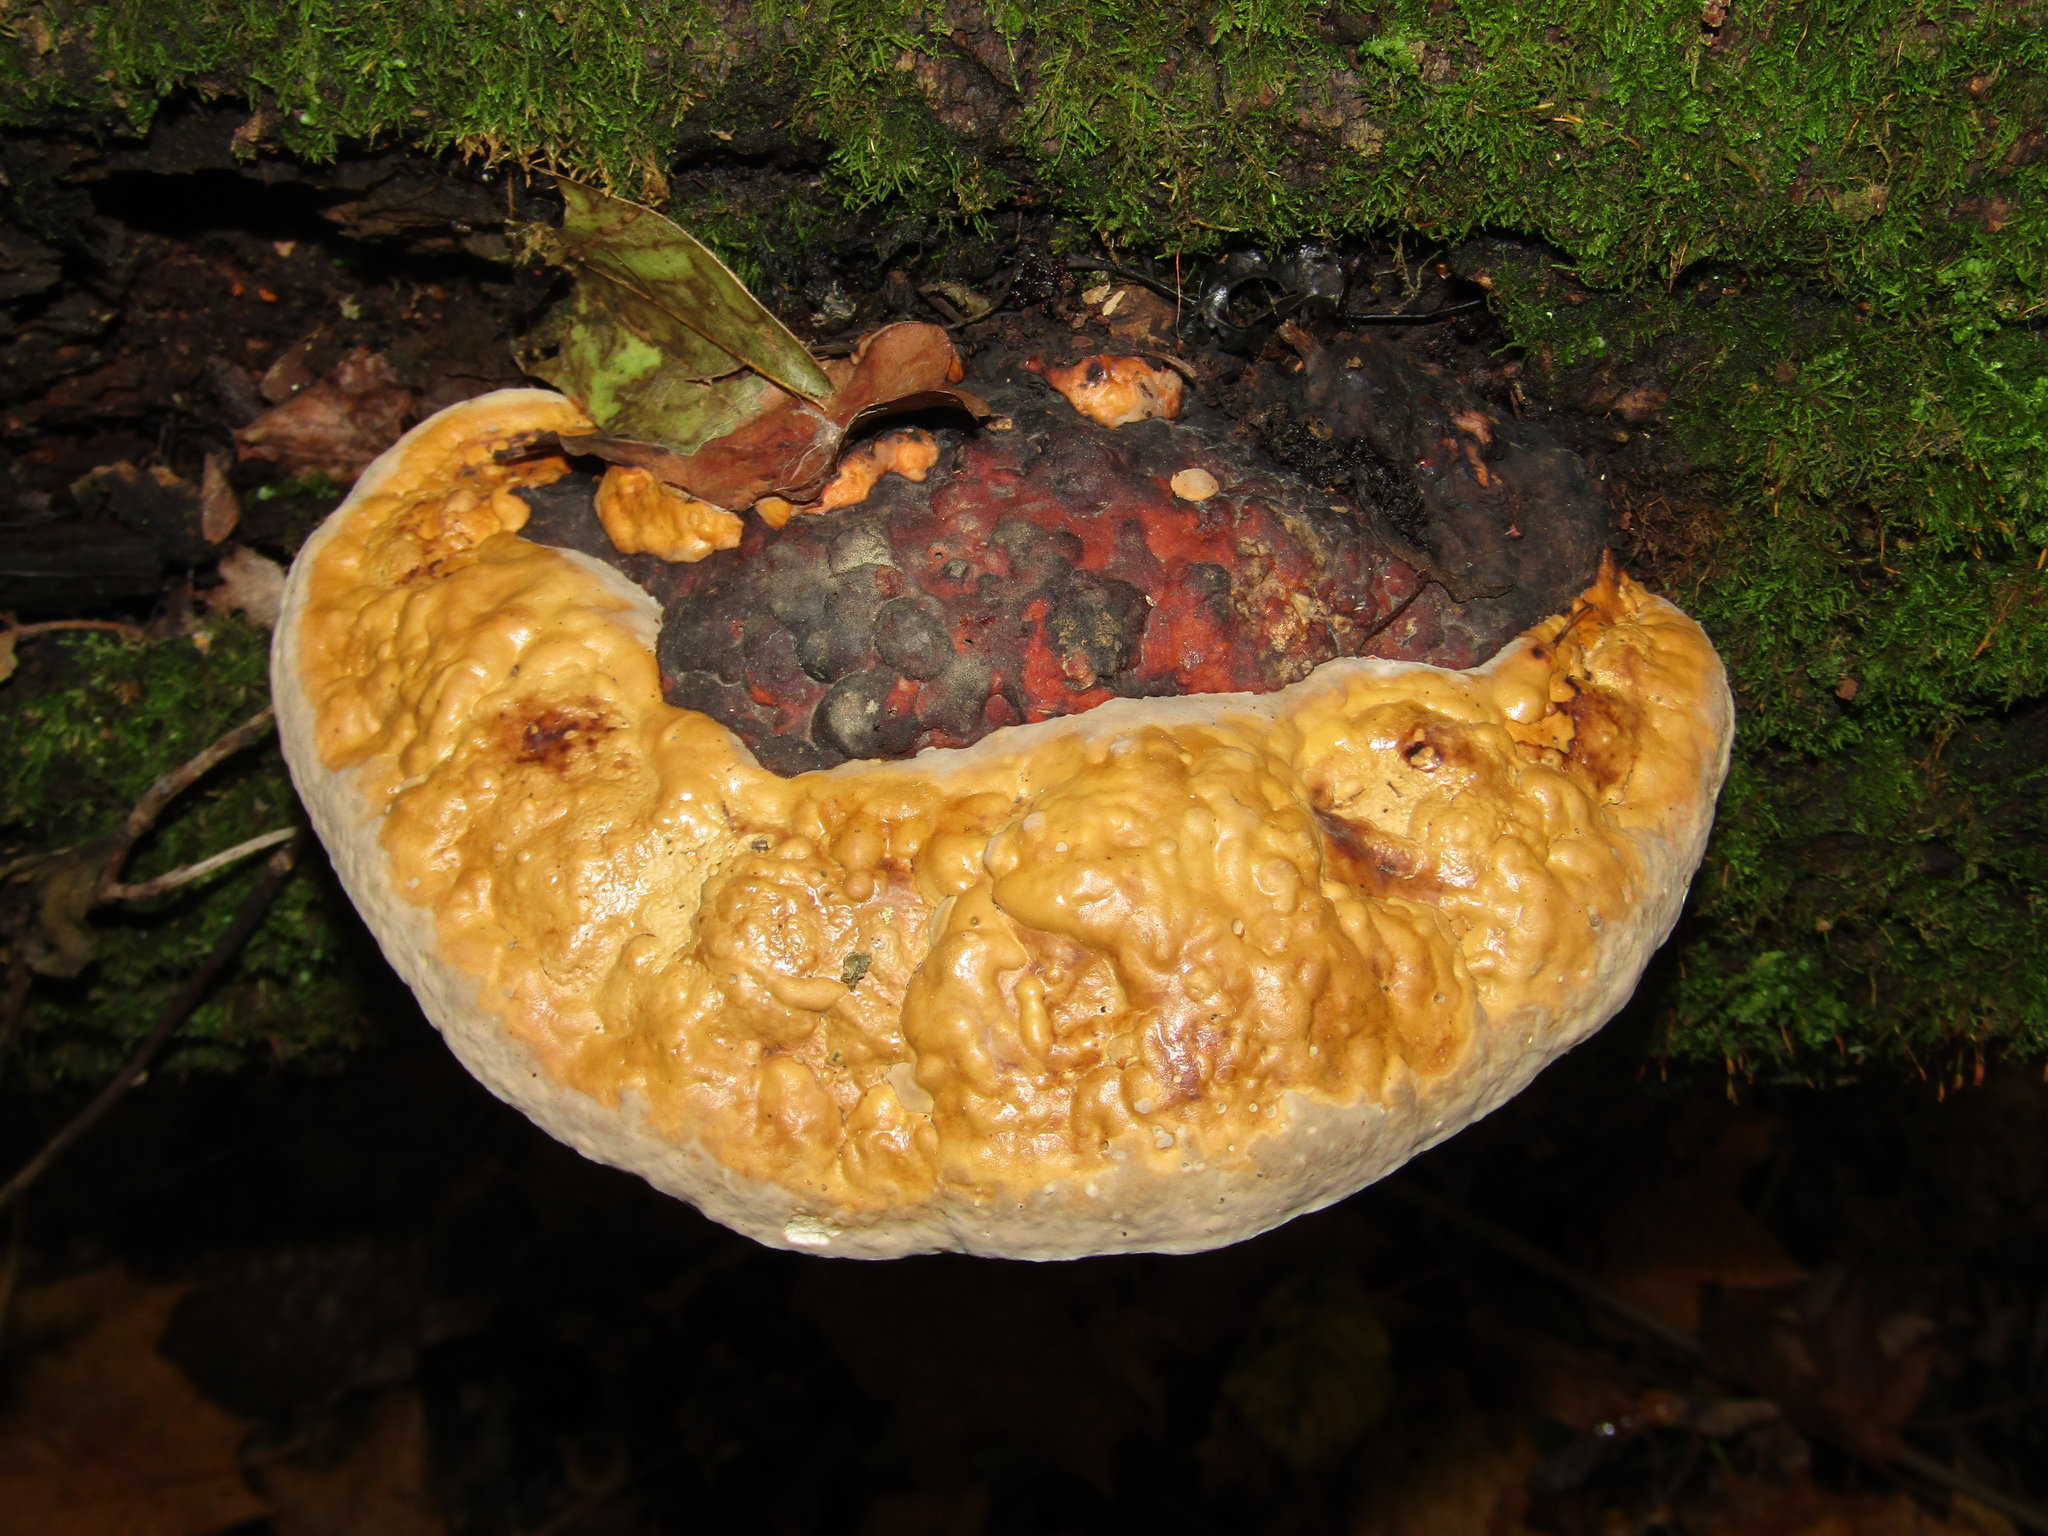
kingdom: Fungi
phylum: Basidiomycota
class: Agaricomycetes
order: Polyporales
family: Fomitopsidaceae
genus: Fomitopsis
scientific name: Fomitopsis pinicola
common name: Red-belted bracket
